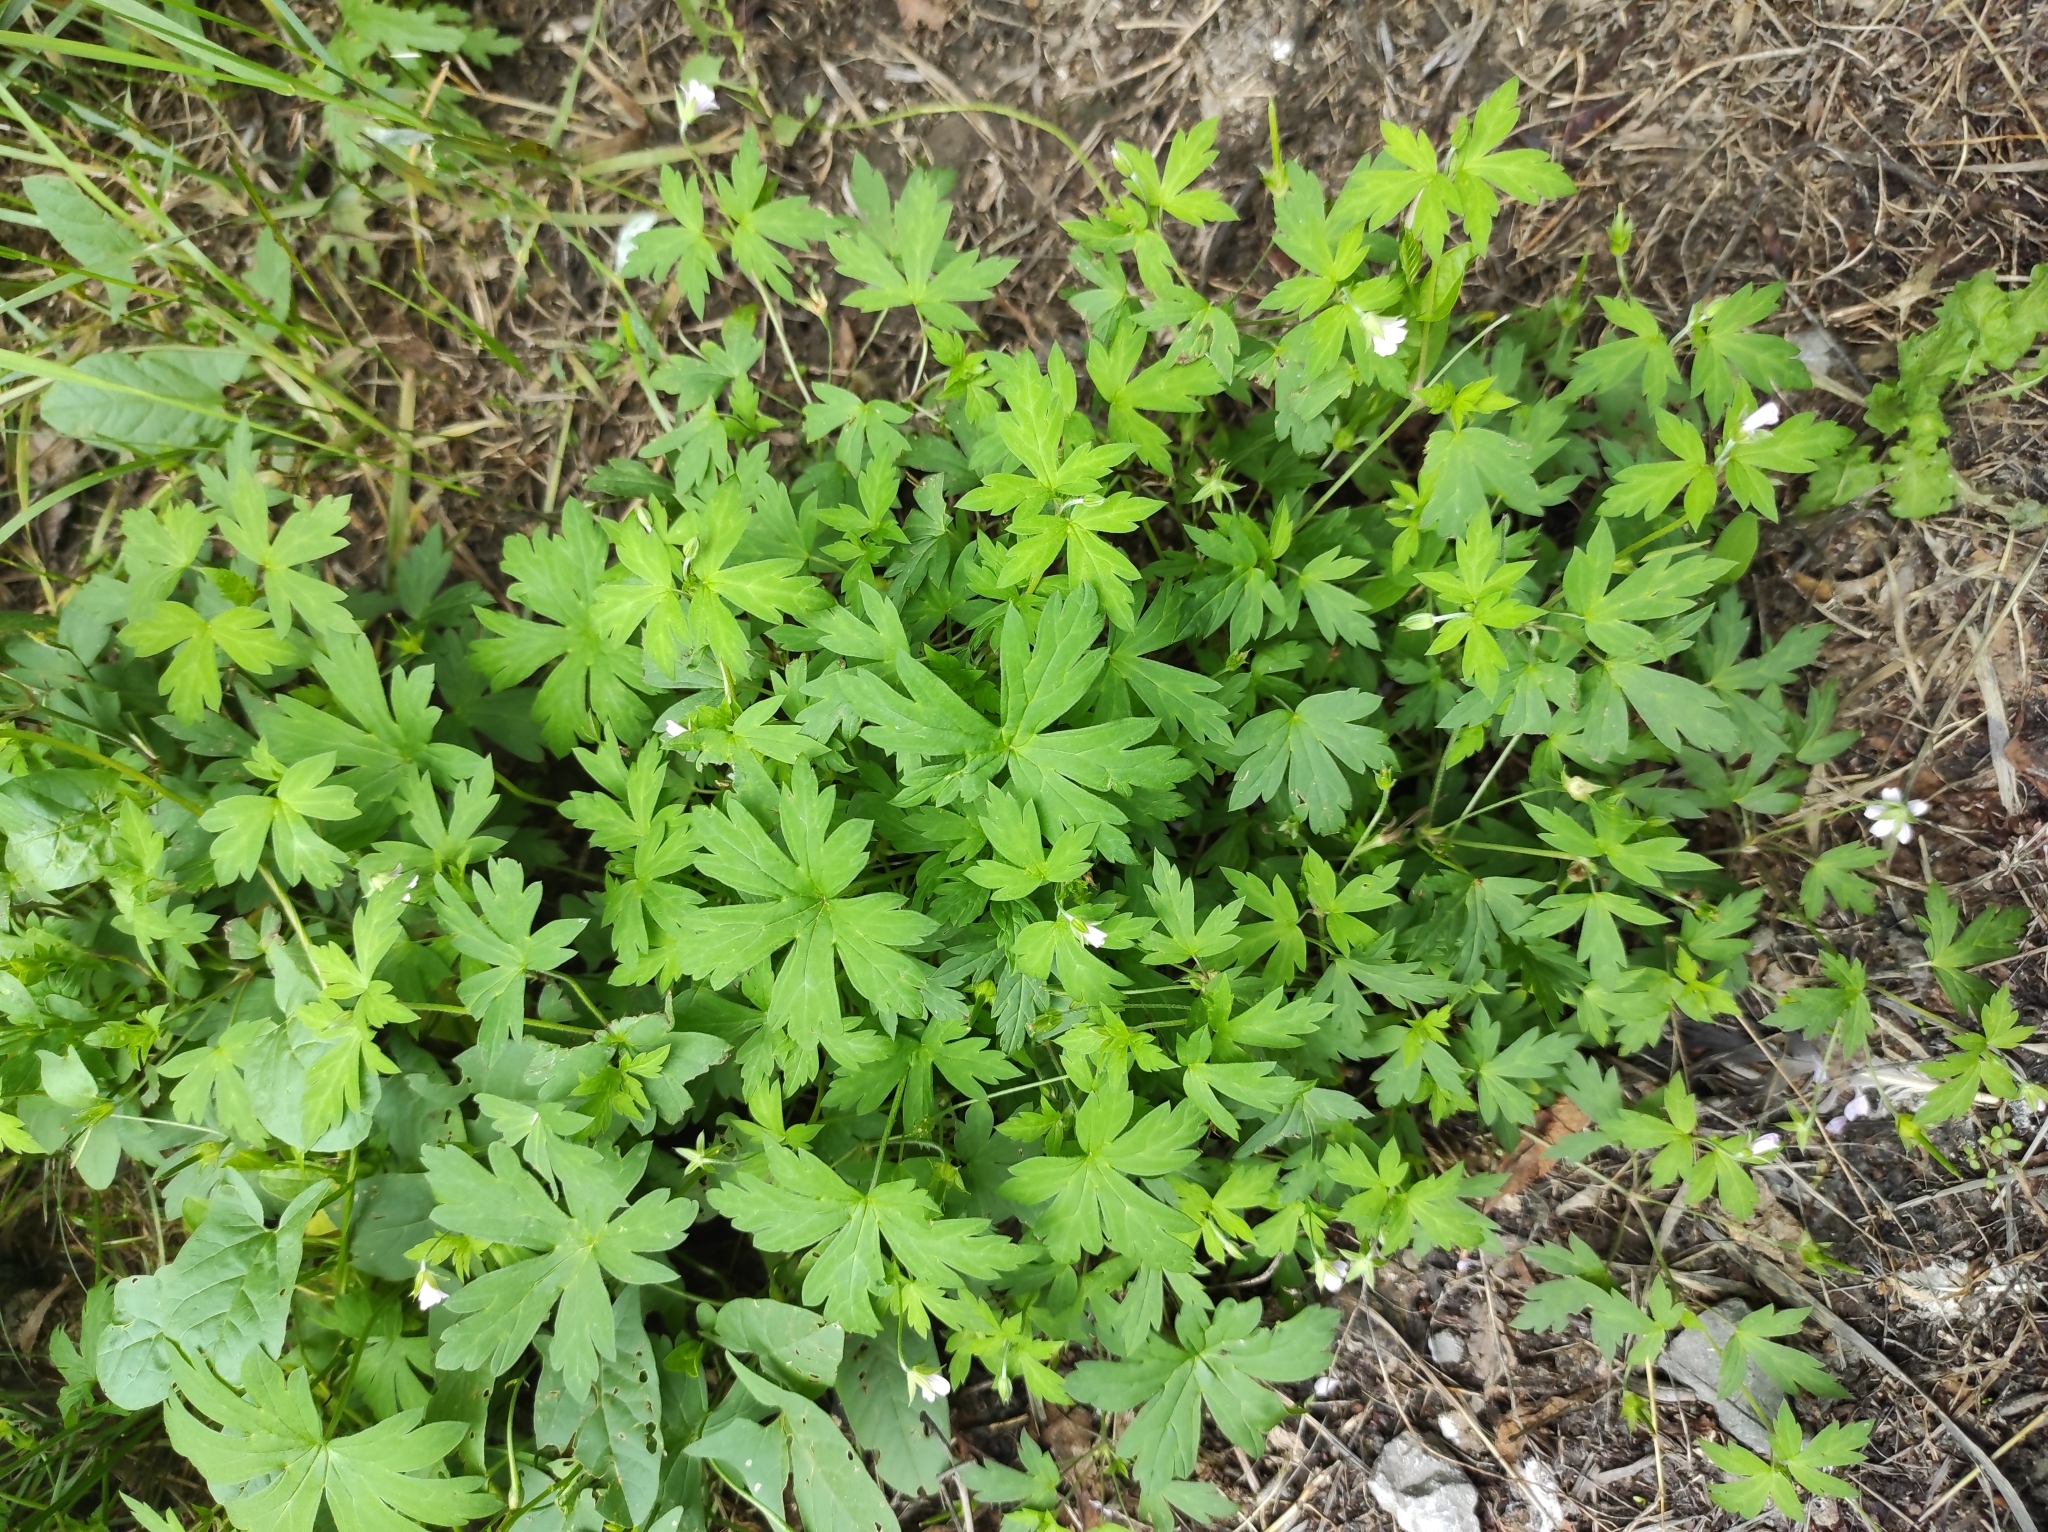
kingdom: Plantae
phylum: Tracheophyta
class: Magnoliopsida
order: Geraniales
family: Geraniaceae
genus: Geranium
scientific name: Geranium sibiricum
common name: Siberian crane's-bill
